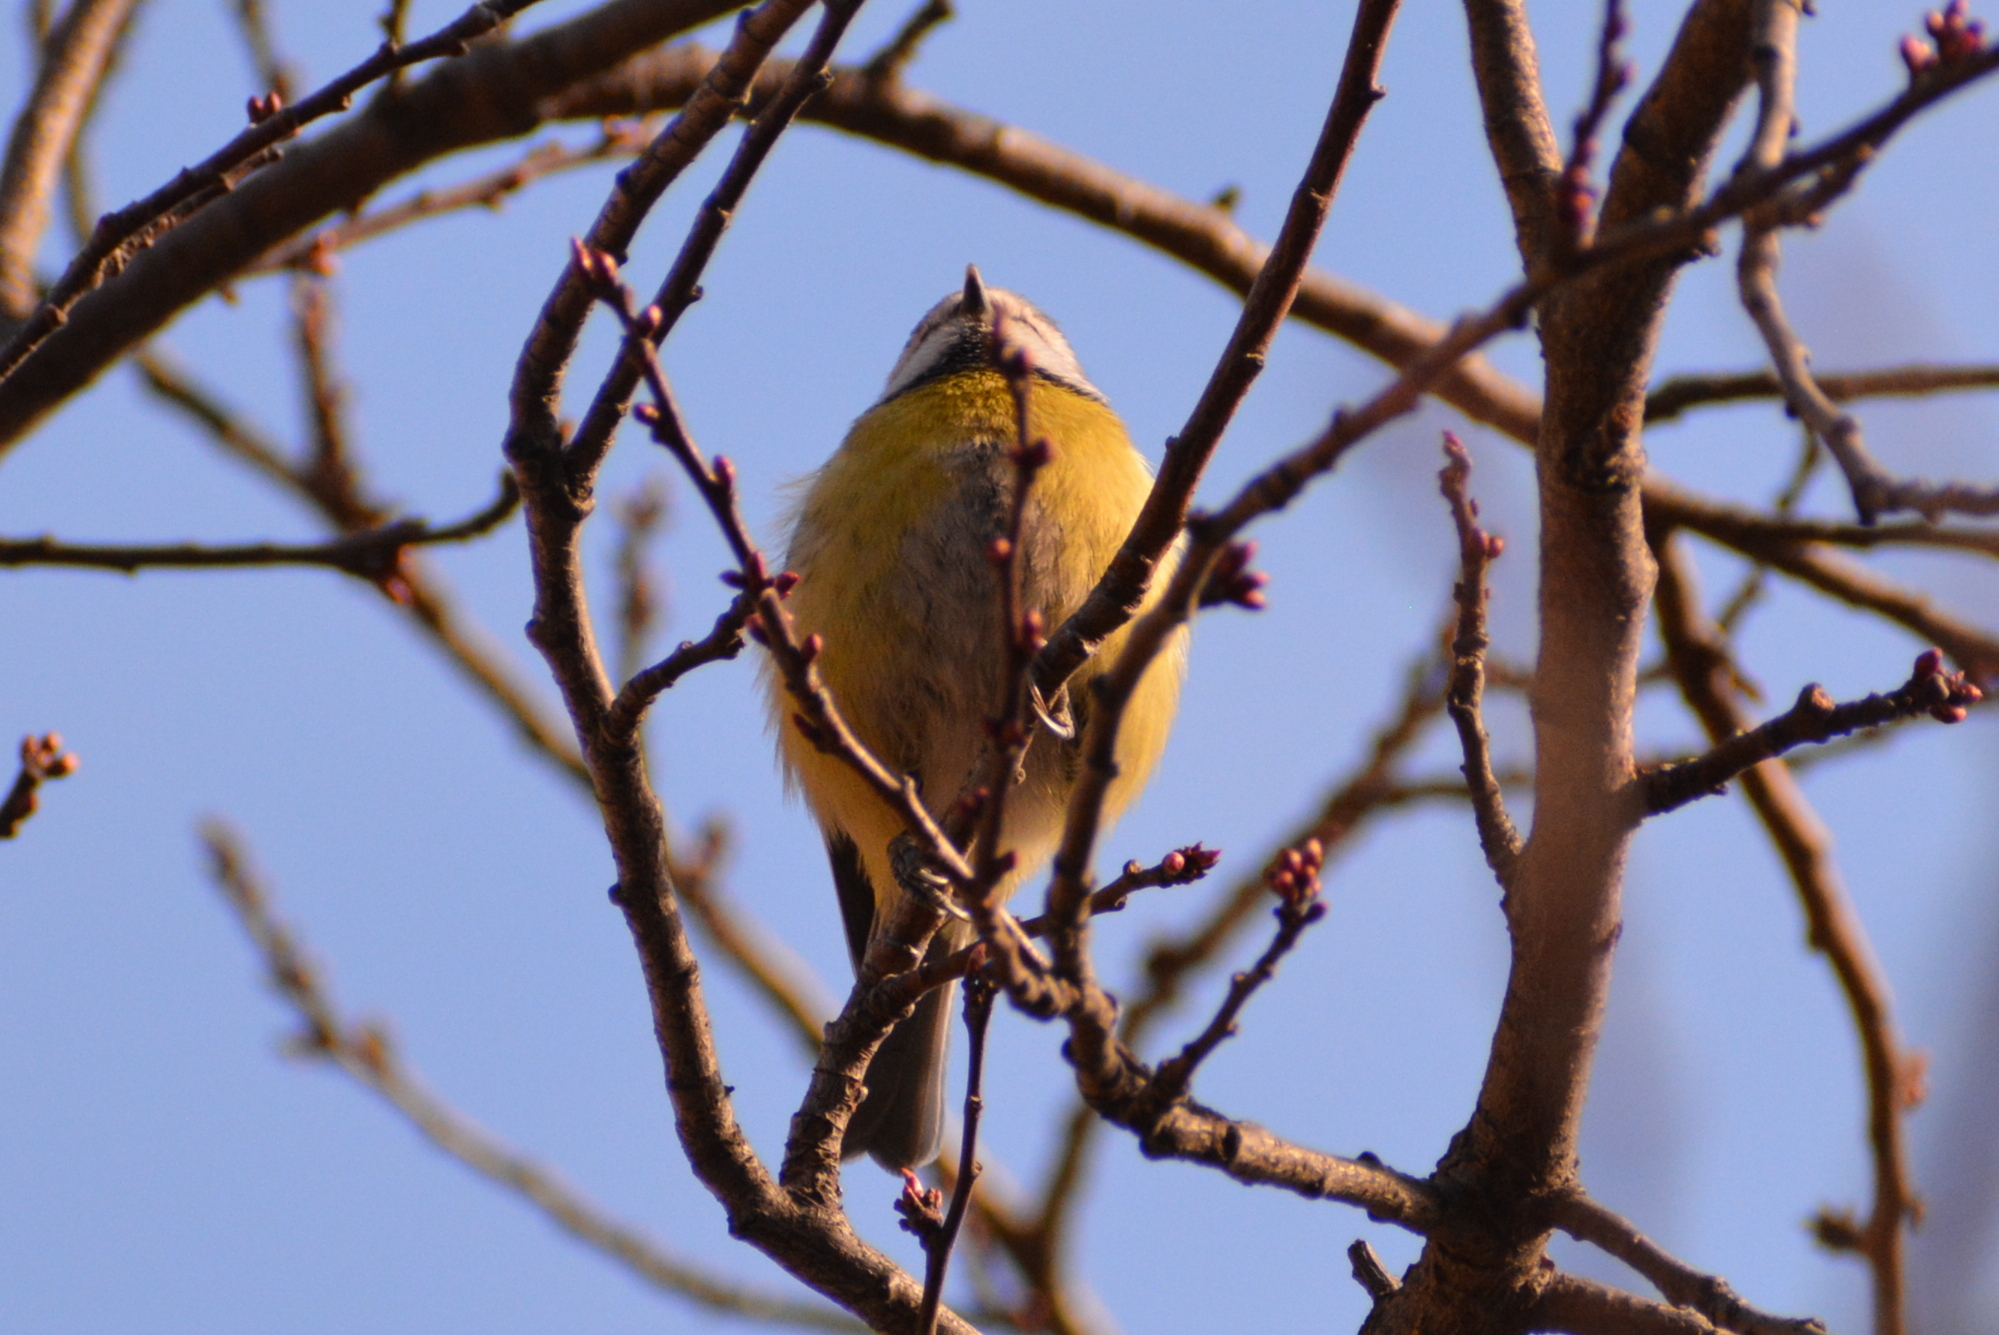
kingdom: Animalia
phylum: Chordata
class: Aves
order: Passeriformes
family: Paridae
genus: Cyanistes
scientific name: Cyanistes caeruleus
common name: Eurasian blue tit
